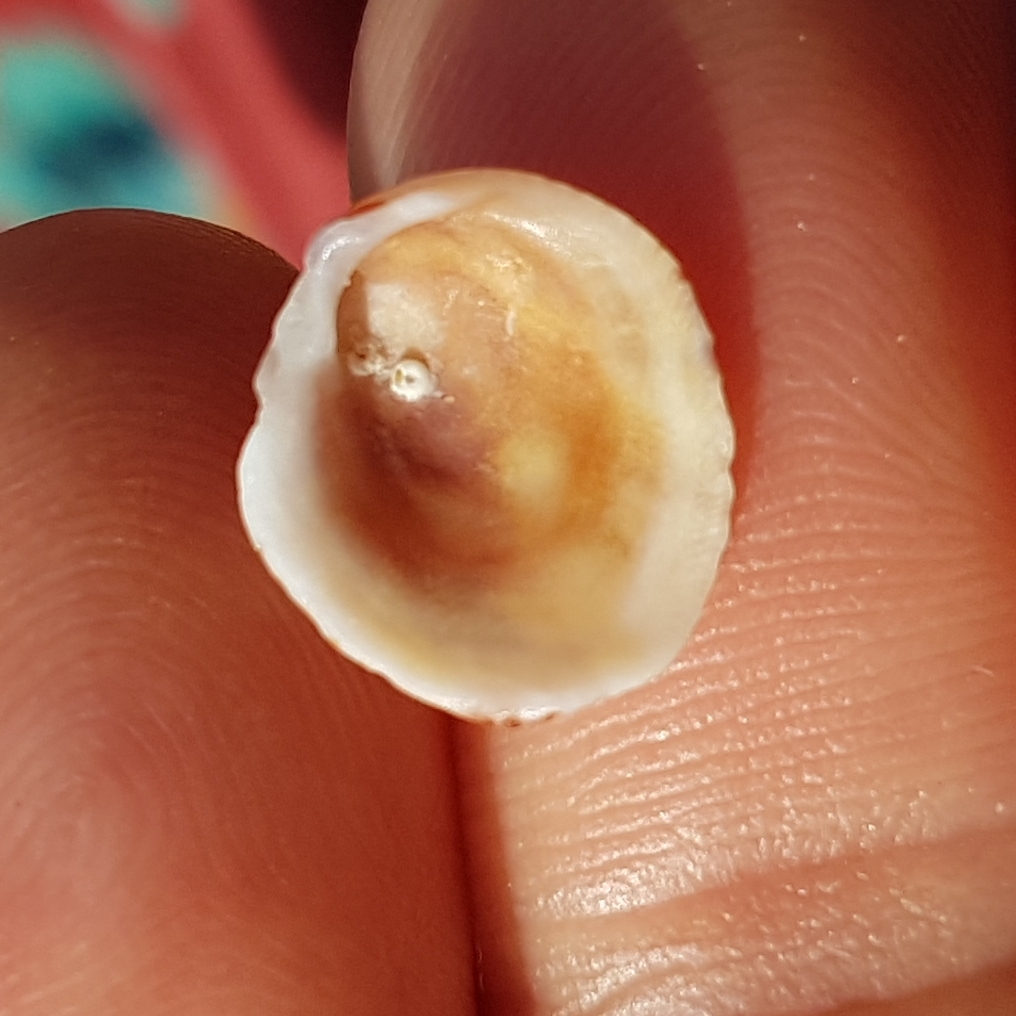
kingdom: Animalia
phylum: Mollusca
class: Bivalvia
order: Venerida
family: Chamidae
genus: Chama
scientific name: Chama gryphoides
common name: Common jewel box
